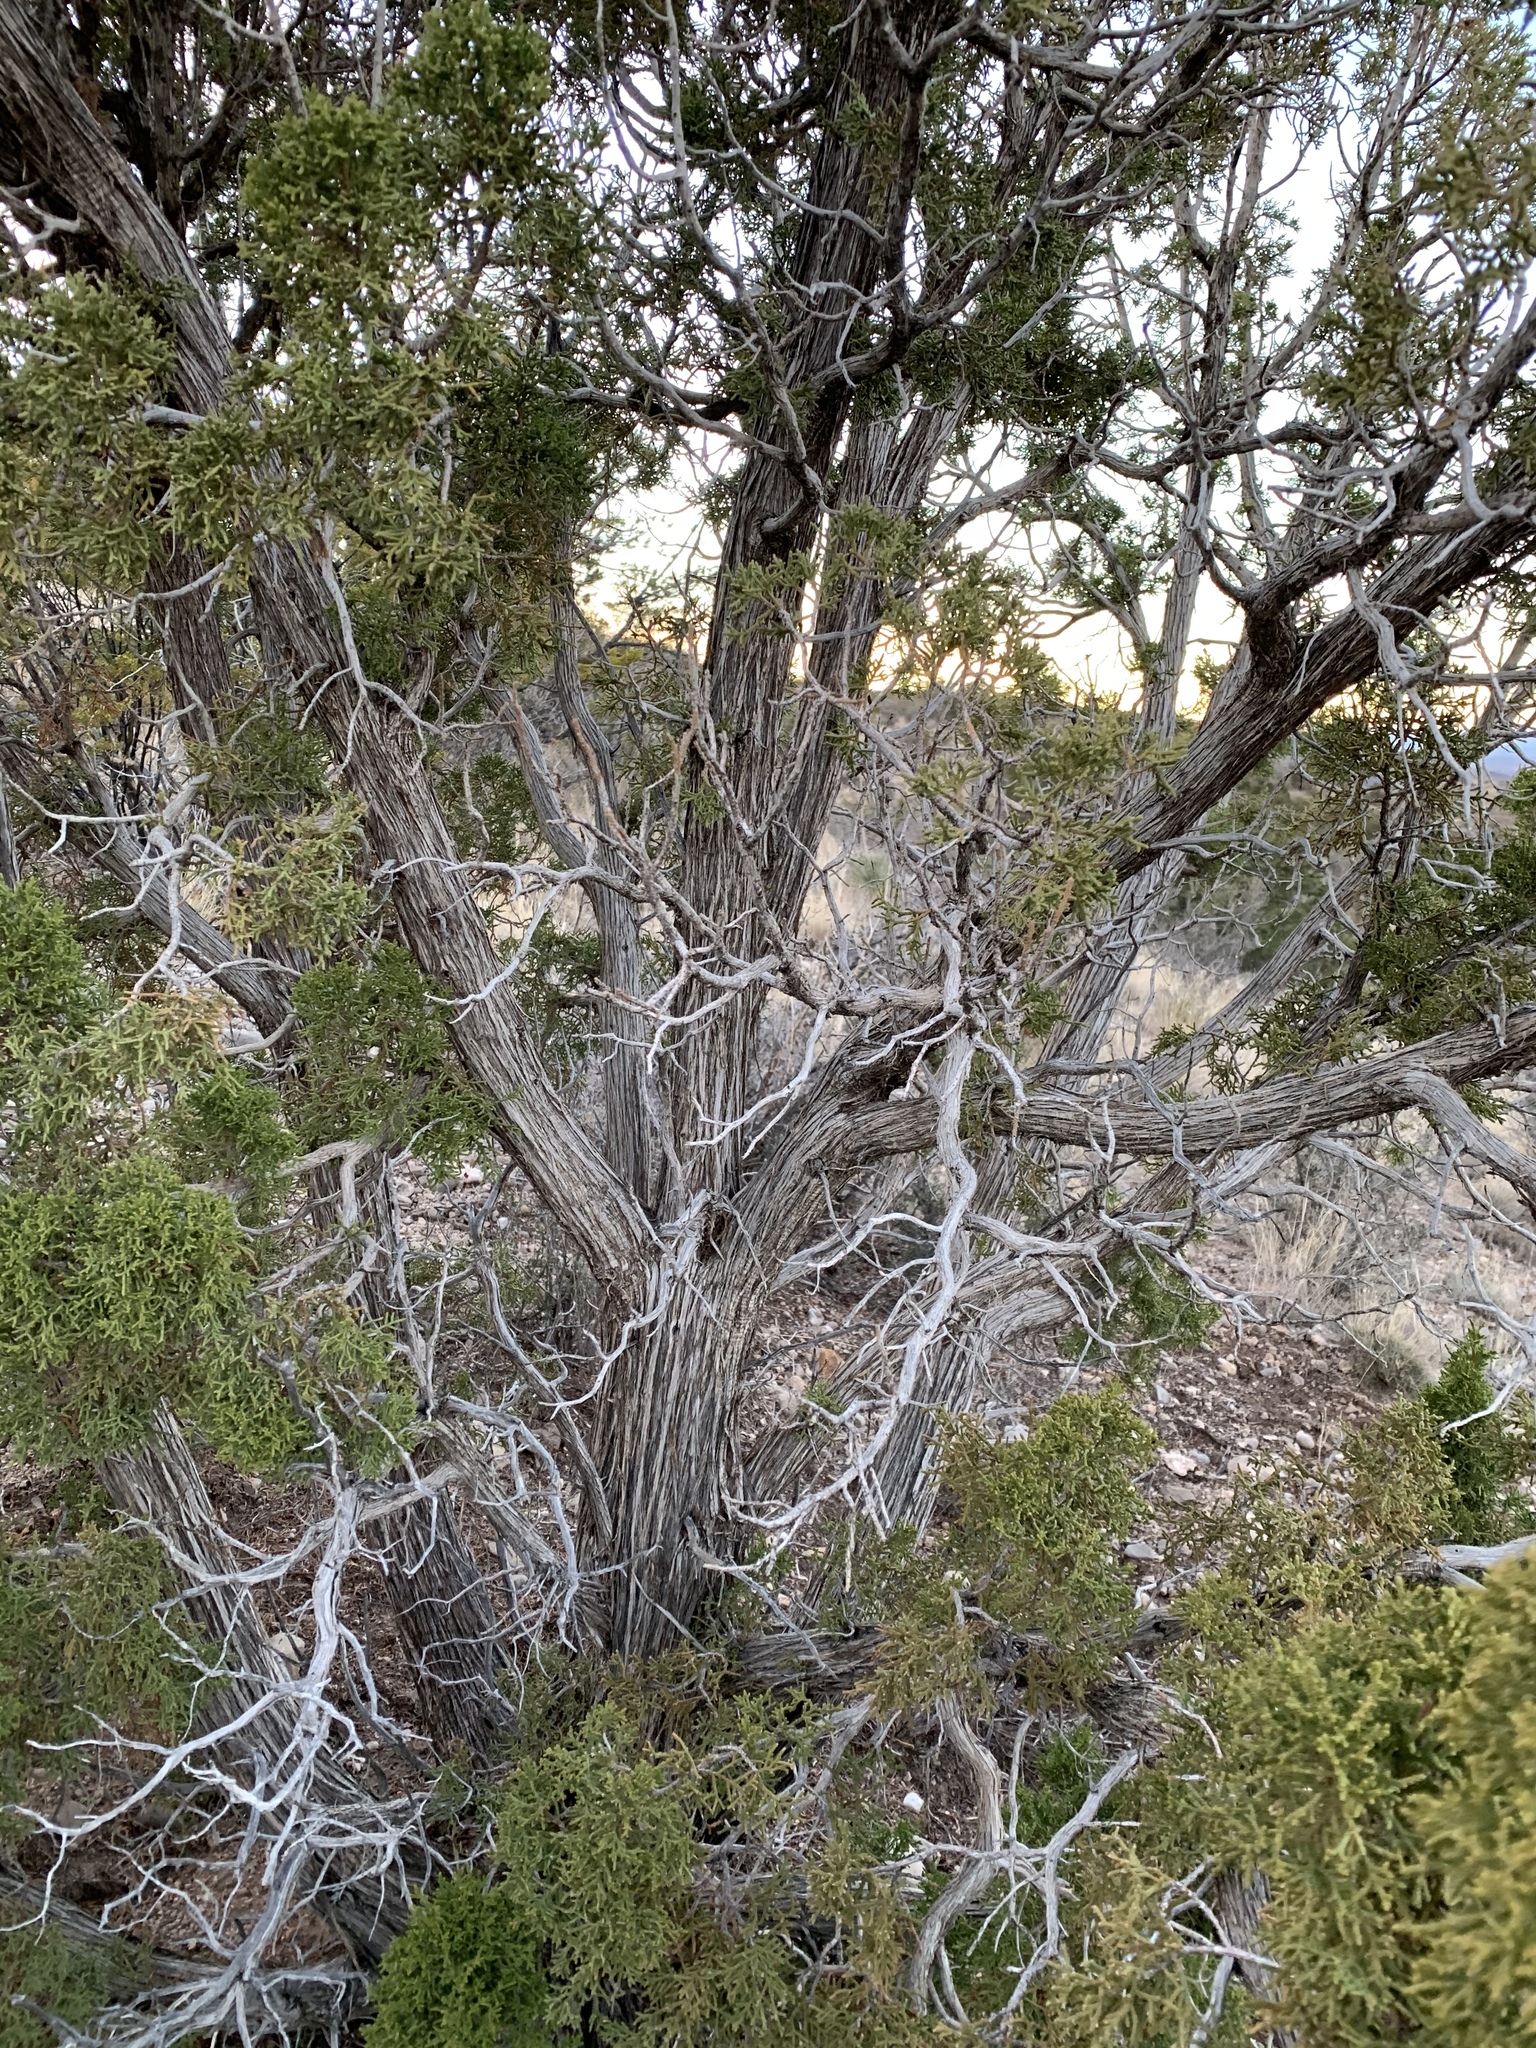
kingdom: Plantae
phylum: Tracheophyta
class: Pinopsida
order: Pinales
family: Cupressaceae
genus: Juniperus
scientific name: Juniperus monosperma
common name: One-seed juniper
